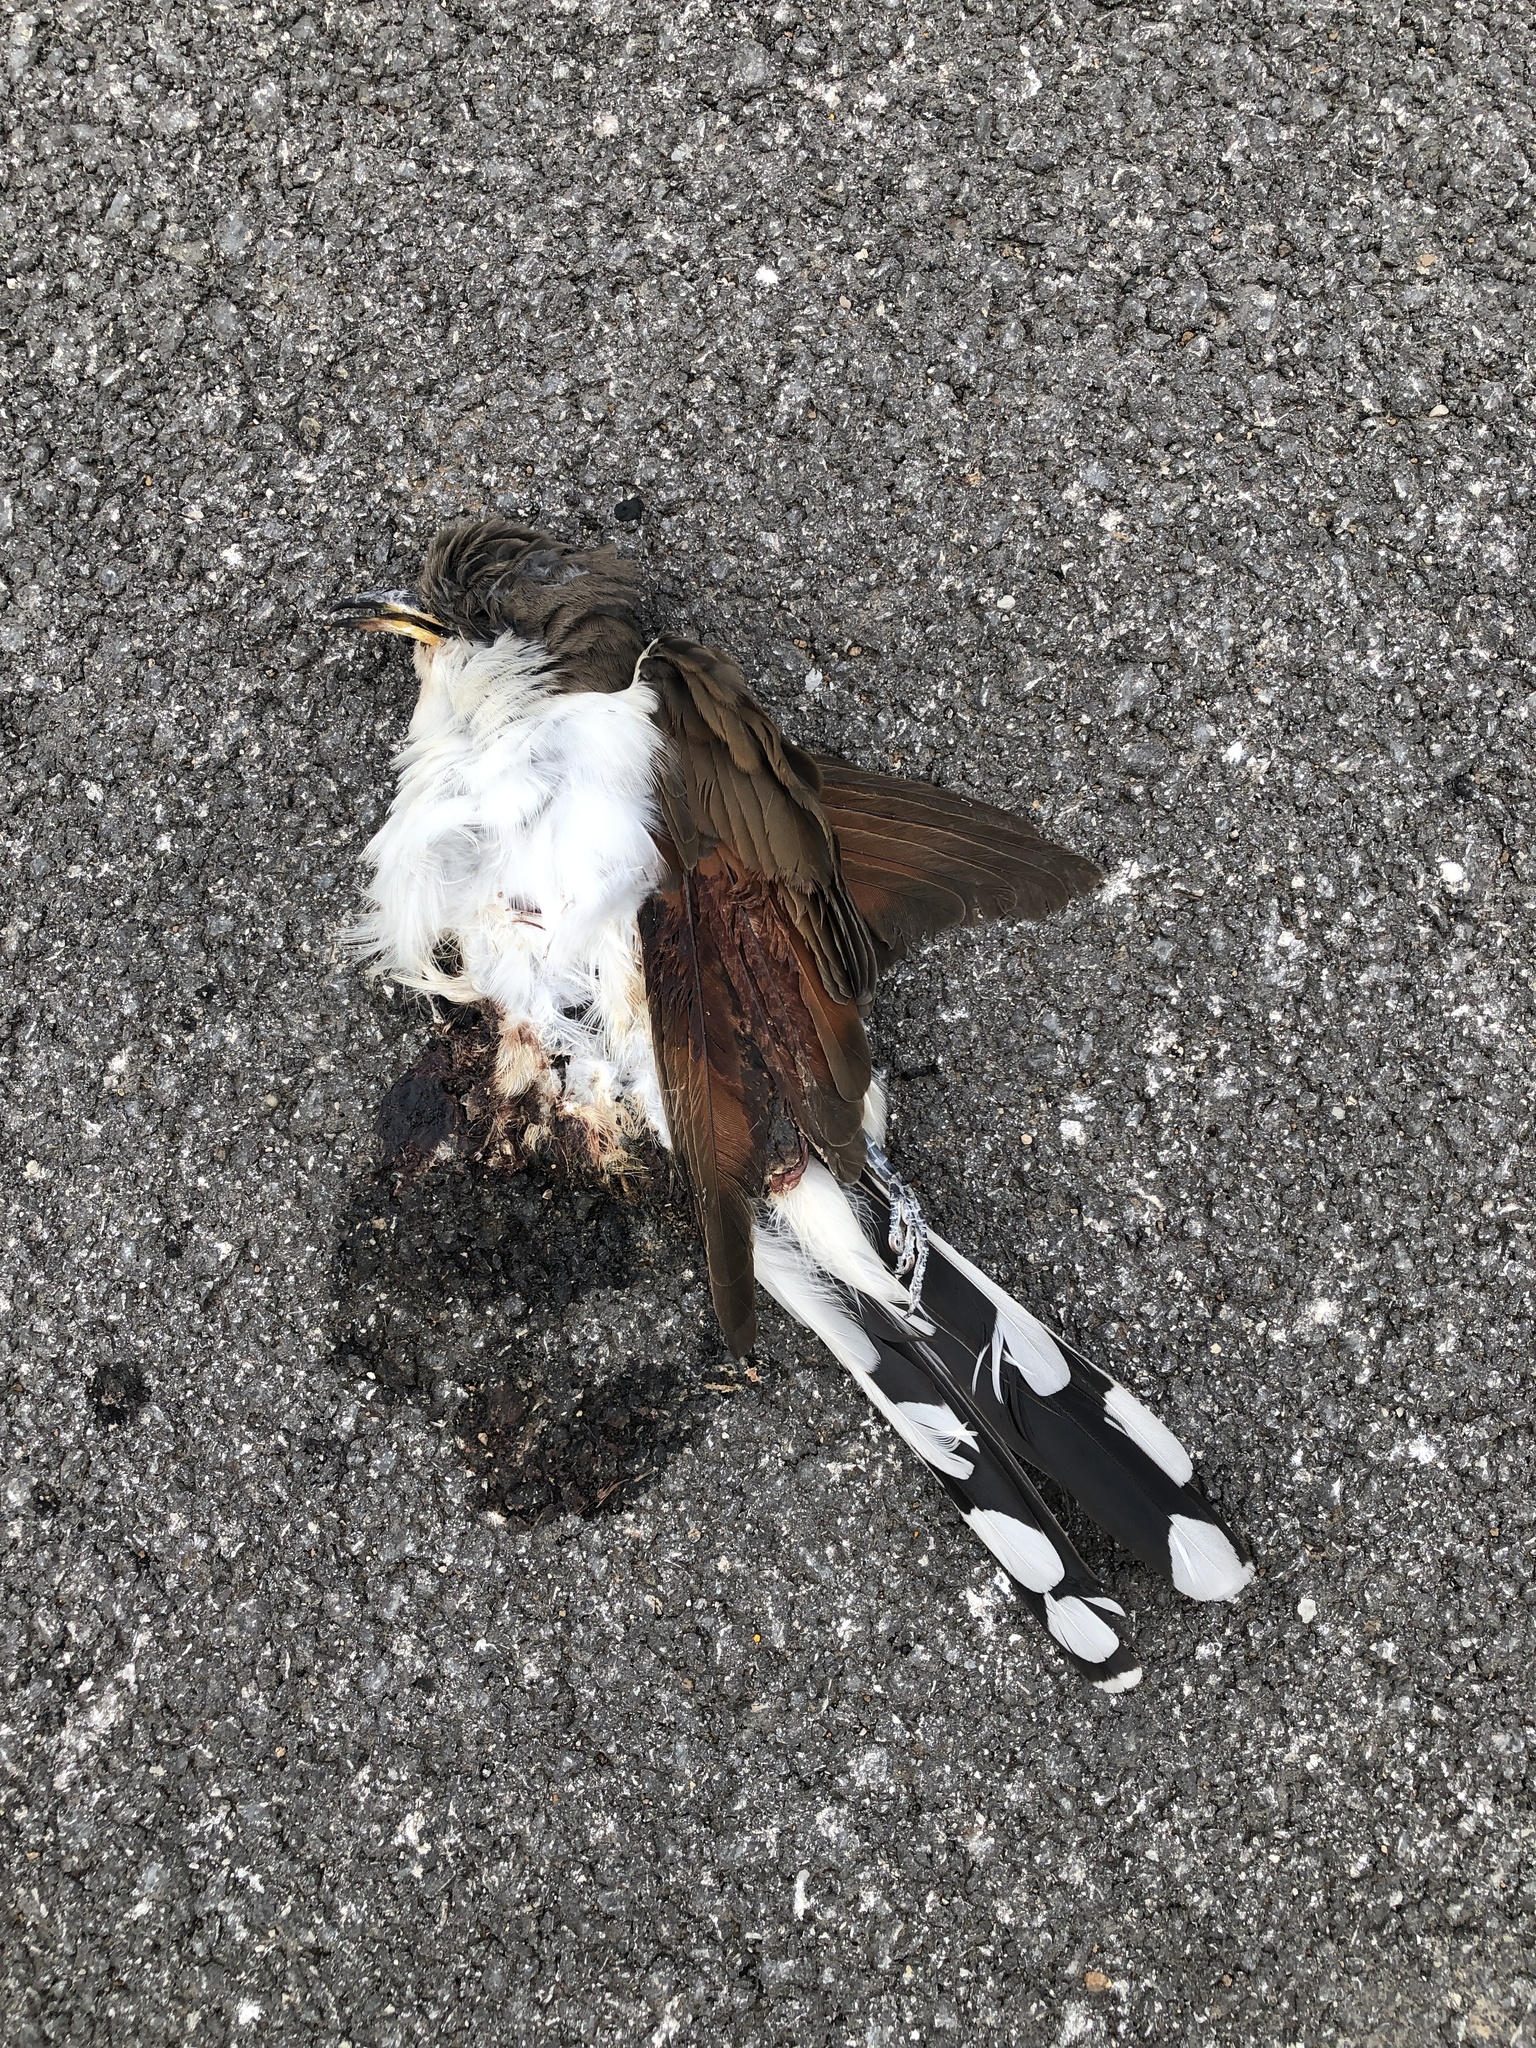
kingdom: Animalia
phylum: Chordata
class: Aves
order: Cuculiformes
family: Cuculidae
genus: Coccyzus
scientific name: Coccyzus americanus
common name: Yellow-billed cuckoo
